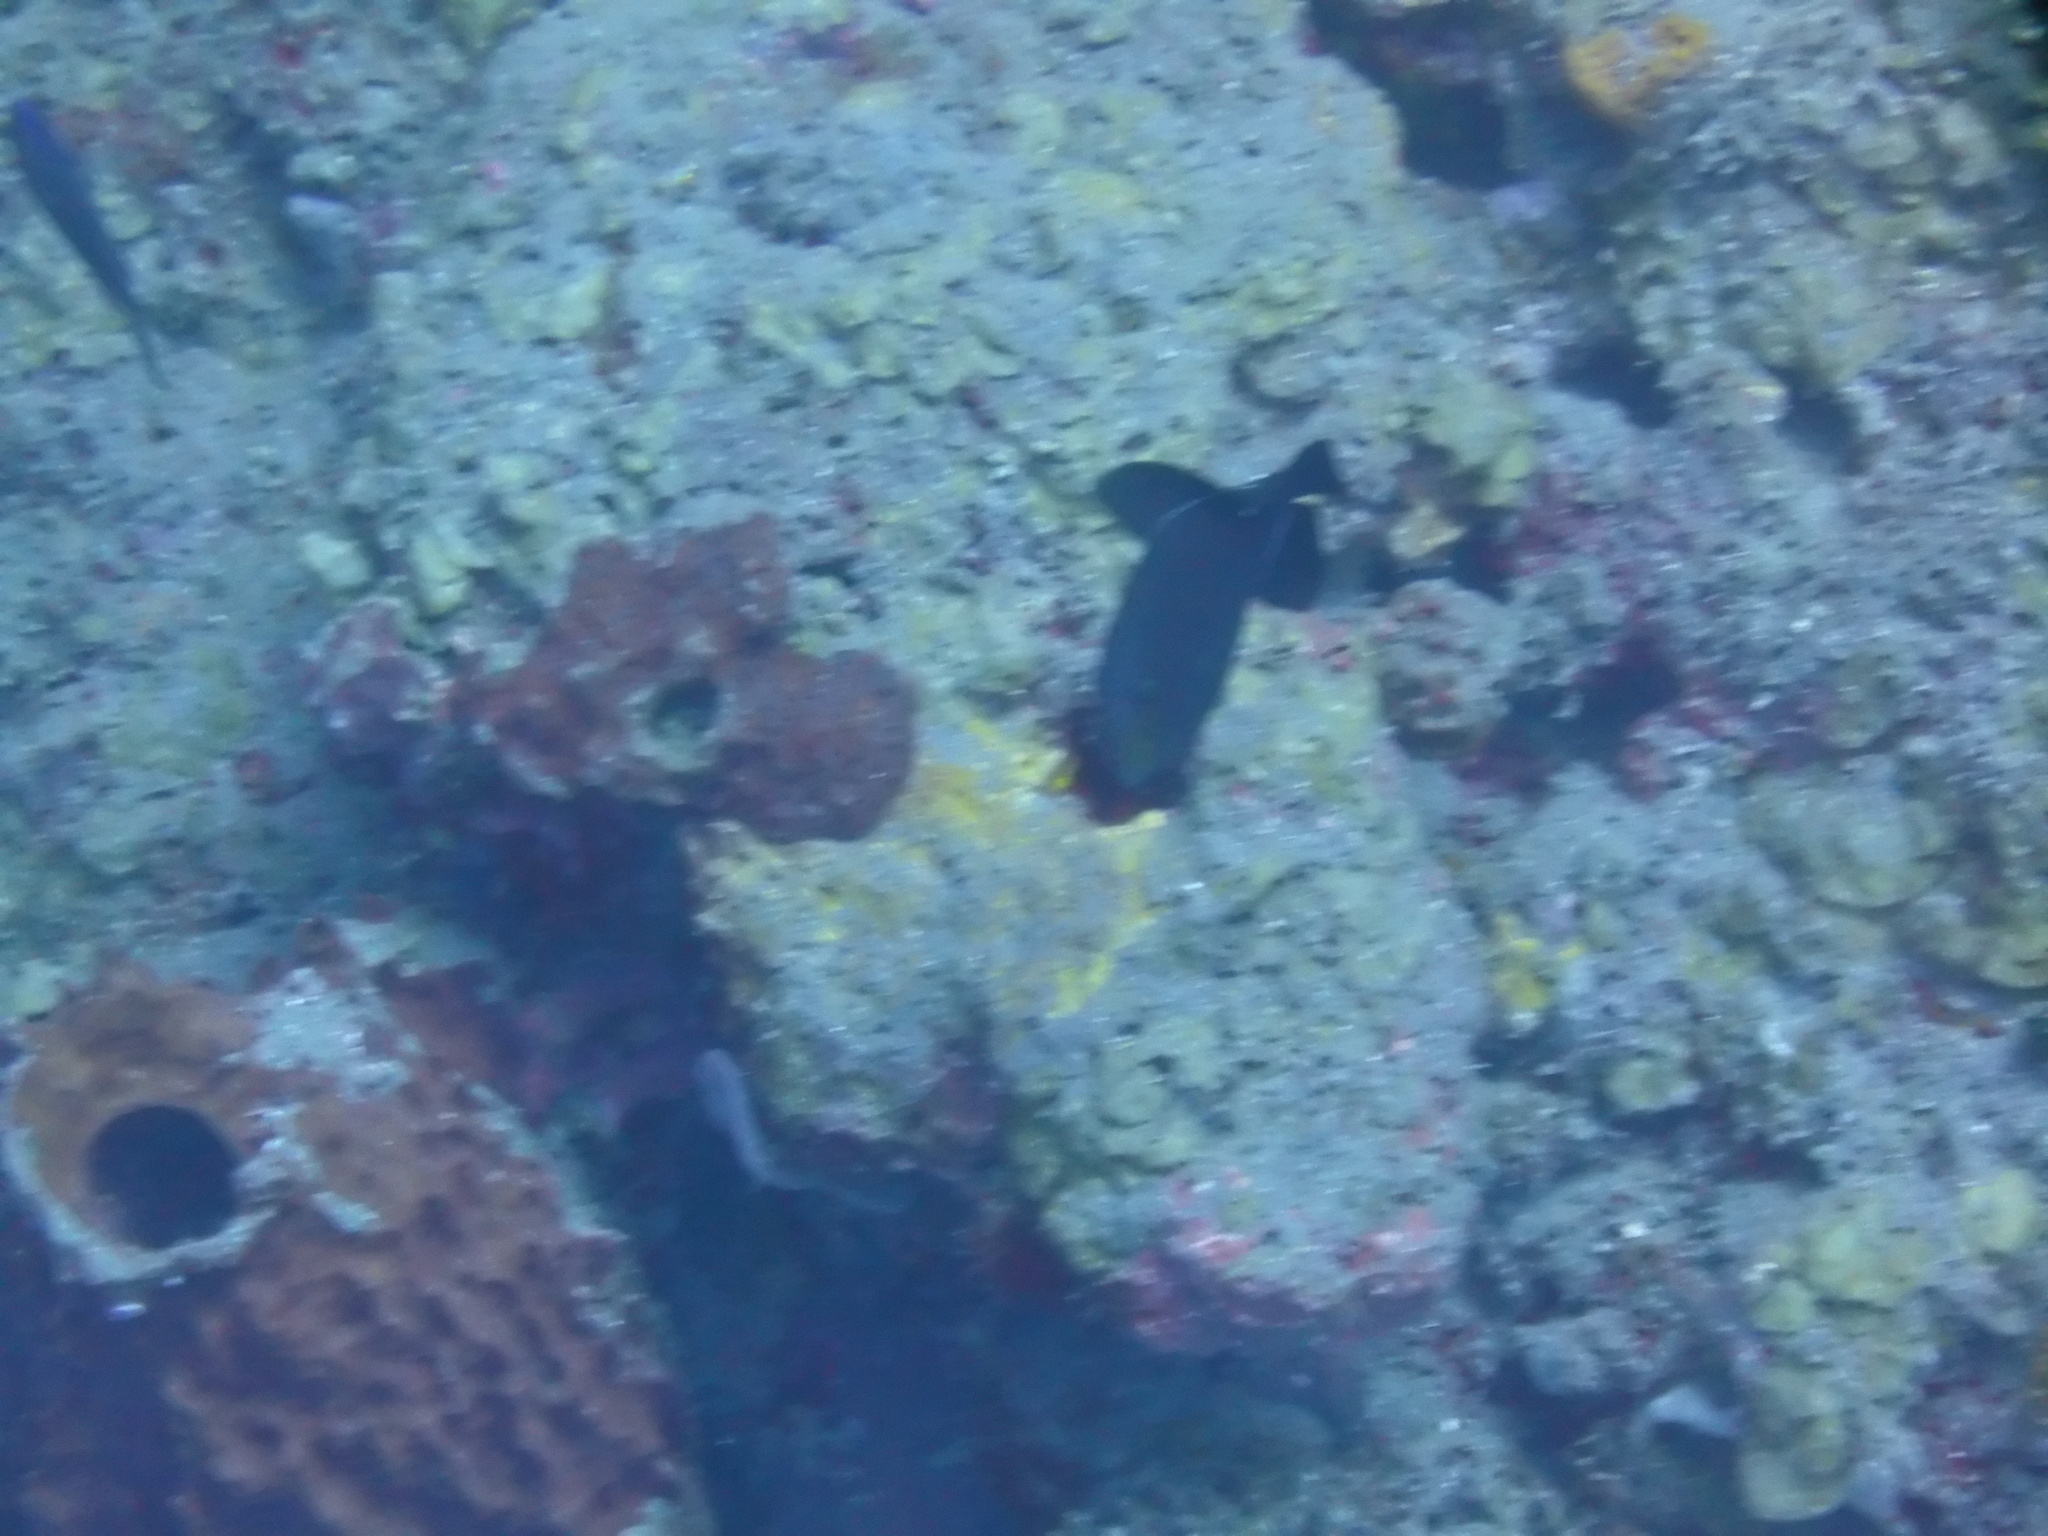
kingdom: Animalia
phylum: Chordata
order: Tetraodontiformes
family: Balistidae
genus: Melichthys
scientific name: Melichthys niger
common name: Black durgon
